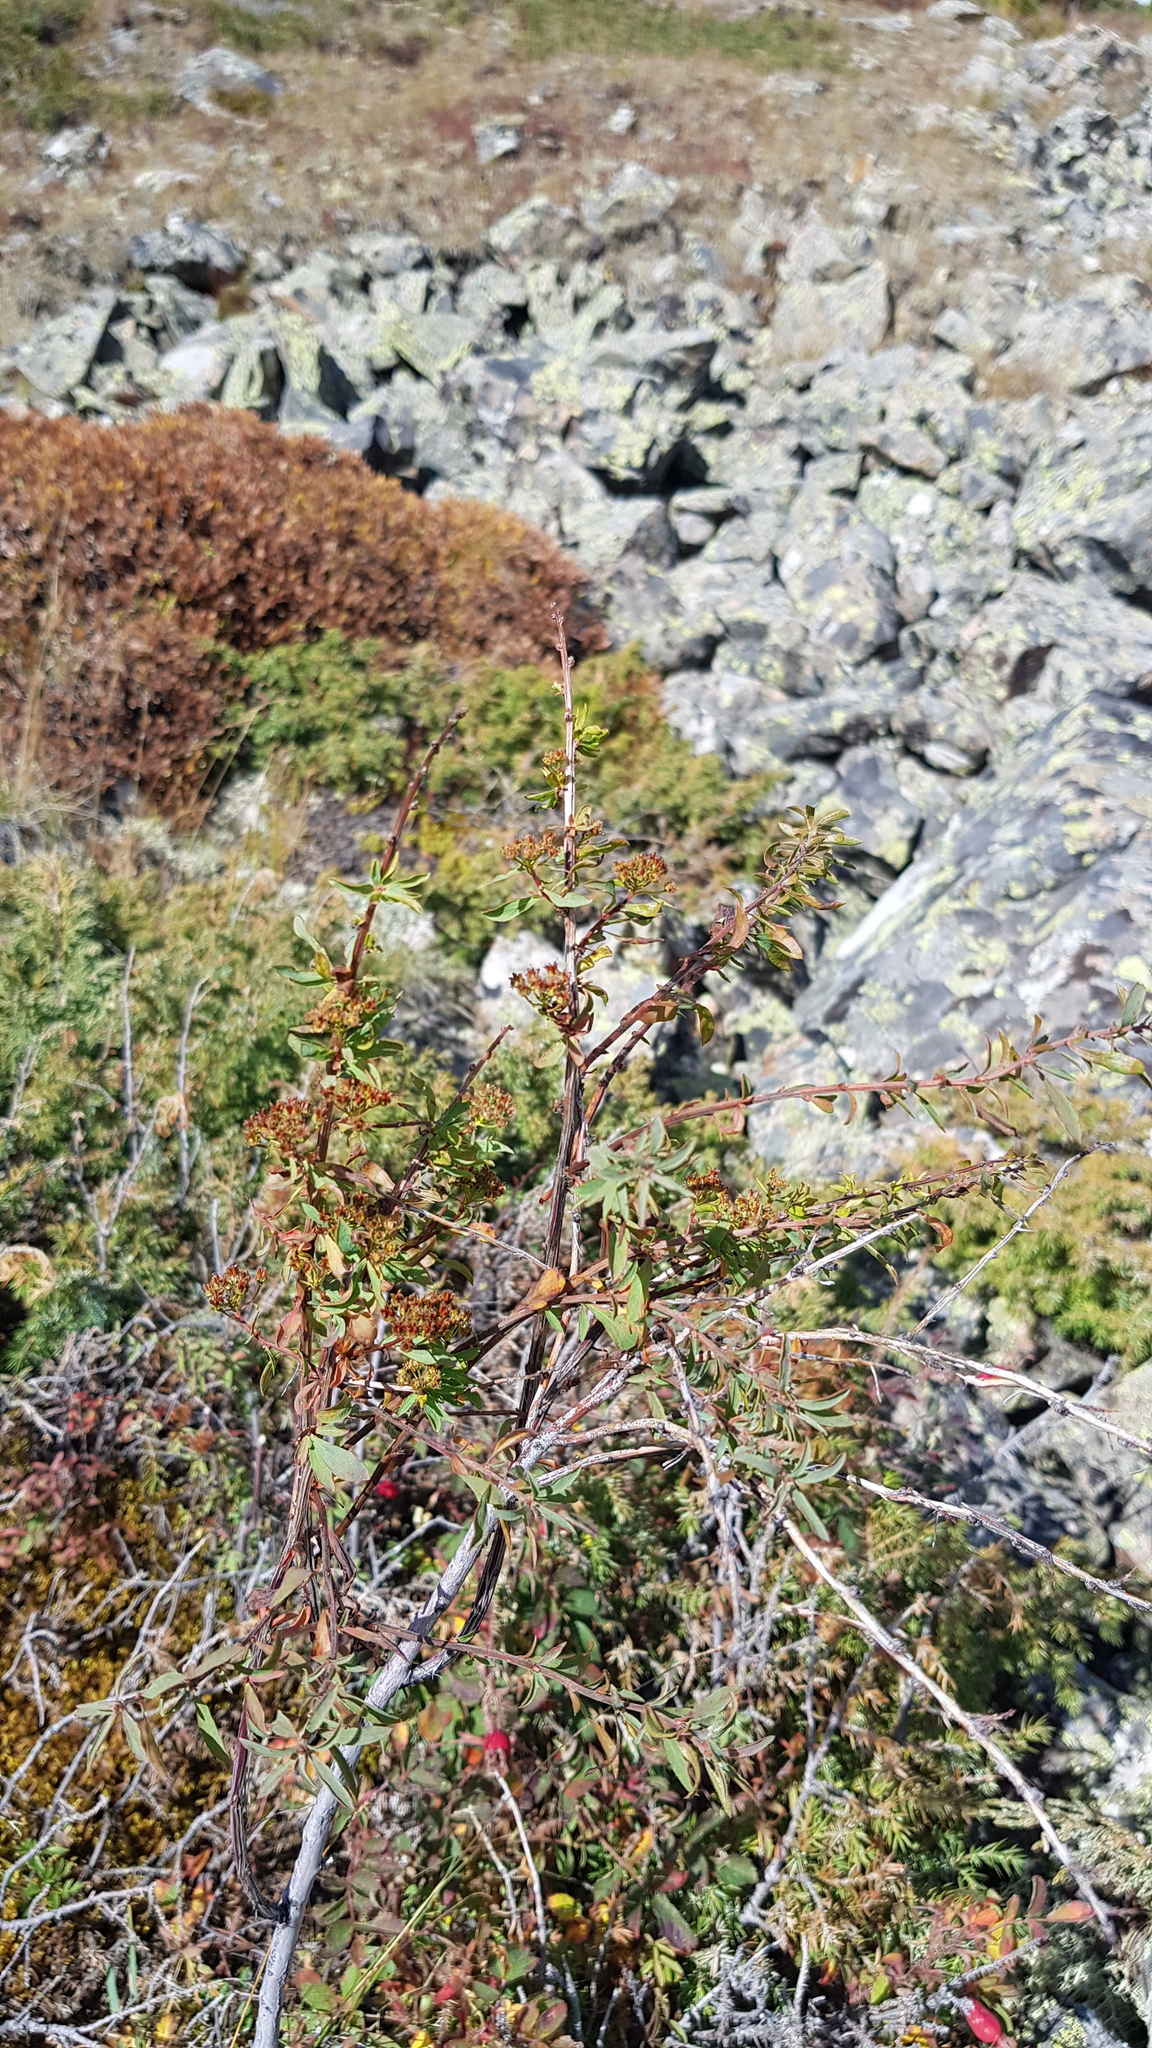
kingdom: Plantae
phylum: Tracheophyta
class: Magnoliopsida
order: Rosales
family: Rosaceae
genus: Spiraea
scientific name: Spiraea alpina
